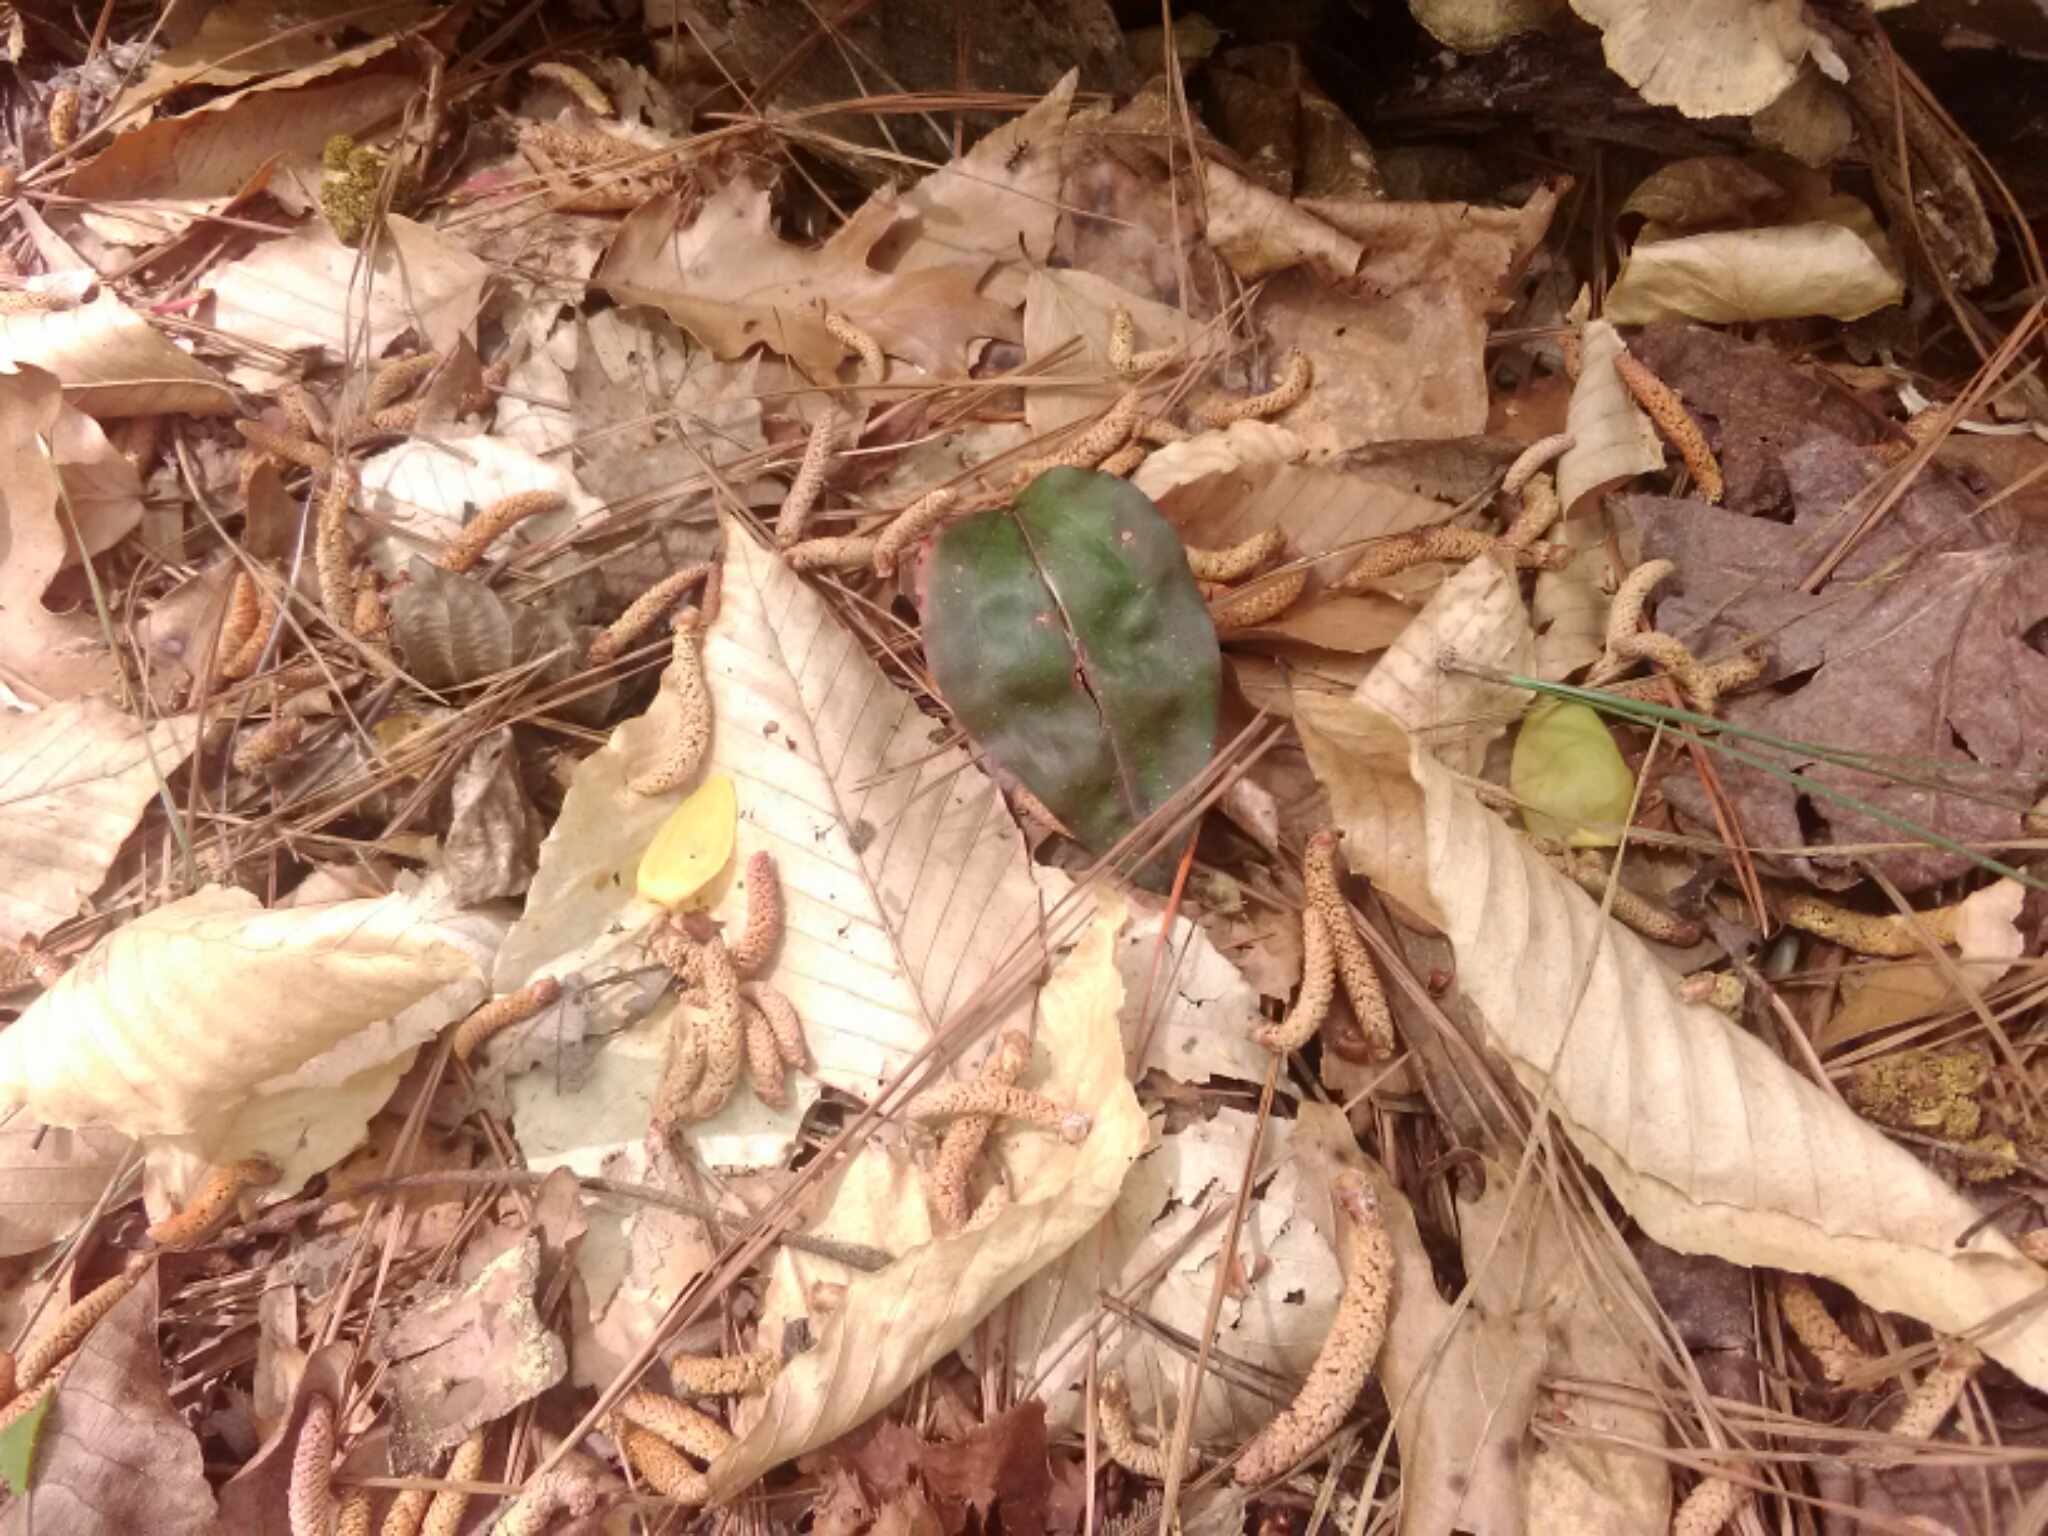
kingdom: Plantae
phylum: Tracheophyta
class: Liliopsida
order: Asparagales
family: Orchidaceae
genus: Tipularia
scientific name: Tipularia discolor
